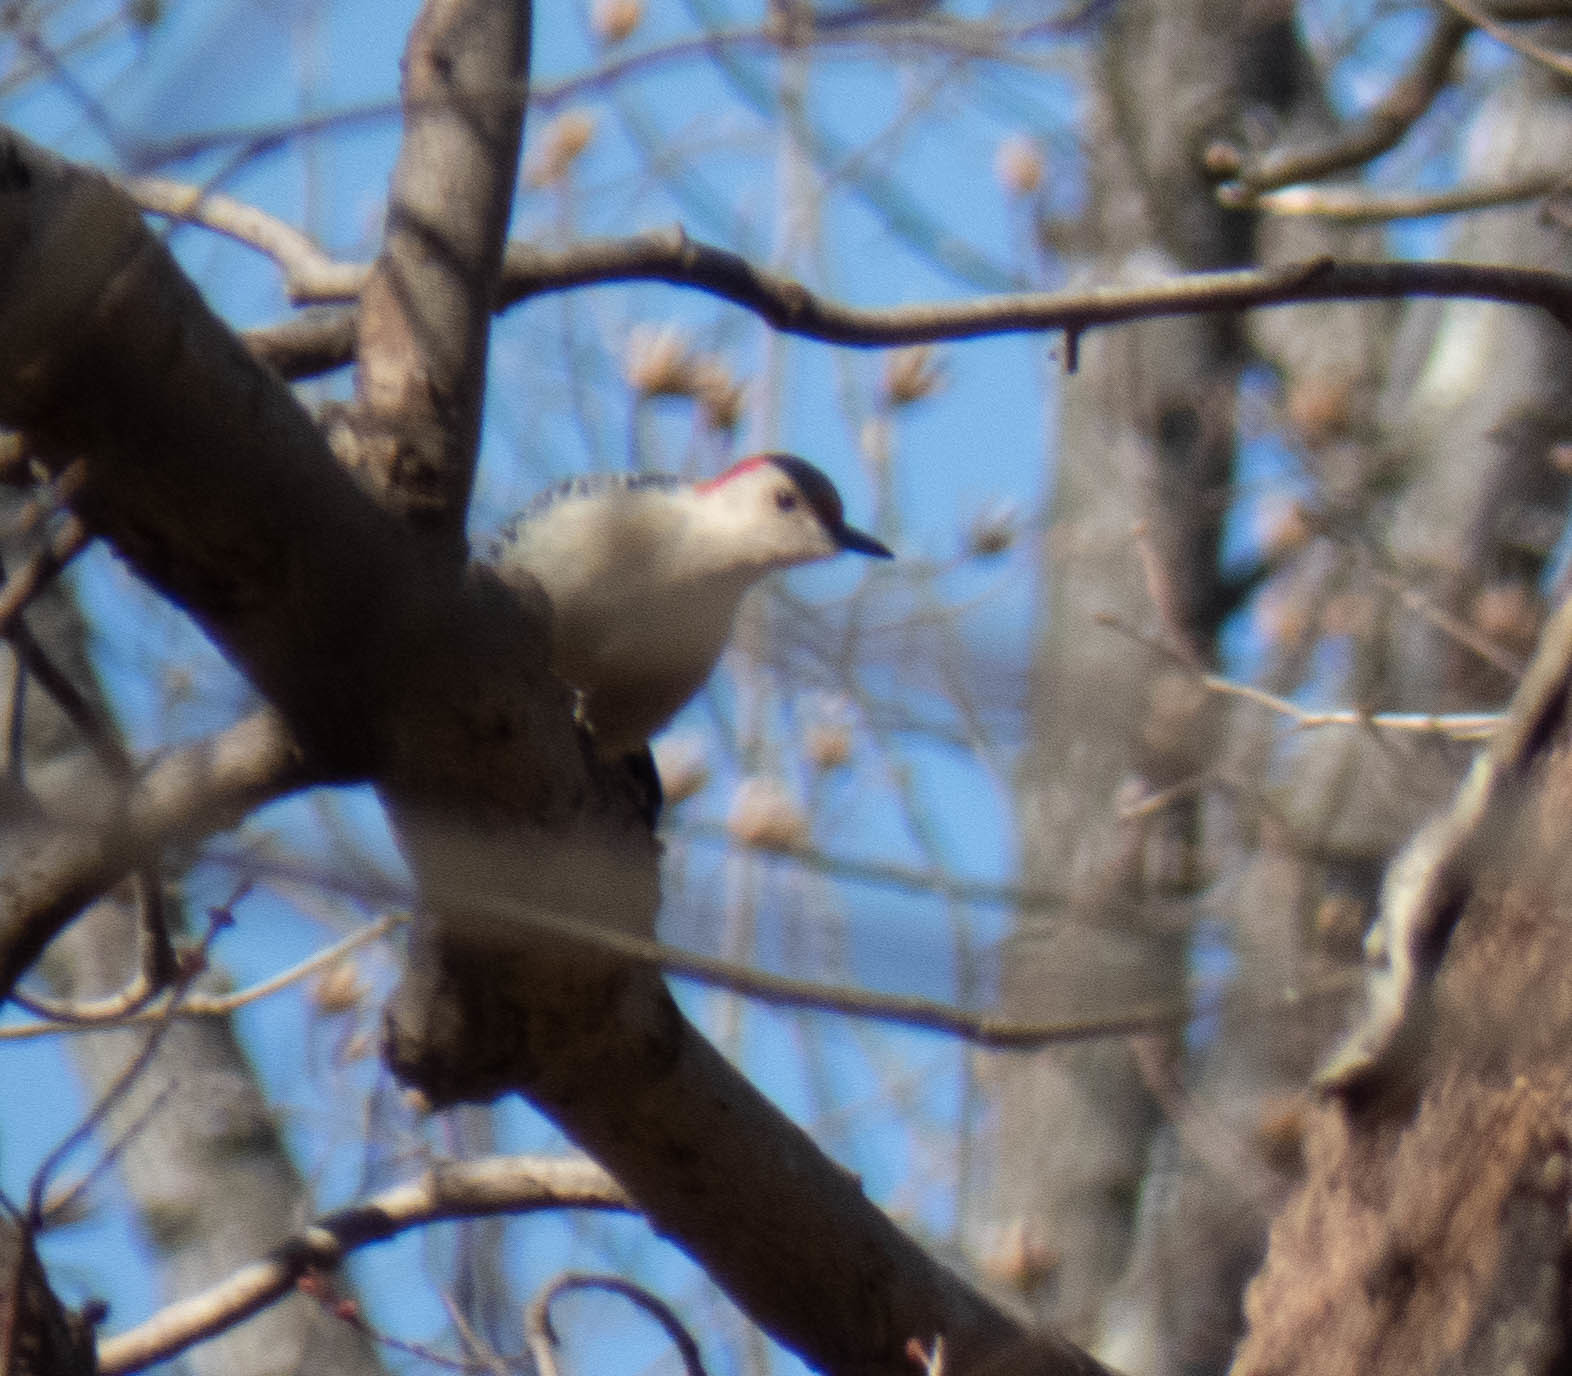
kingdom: Animalia
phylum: Chordata
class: Aves
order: Piciformes
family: Picidae
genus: Melanerpes
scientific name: Melanerpes carolinus
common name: Red-bellied woodpecker
